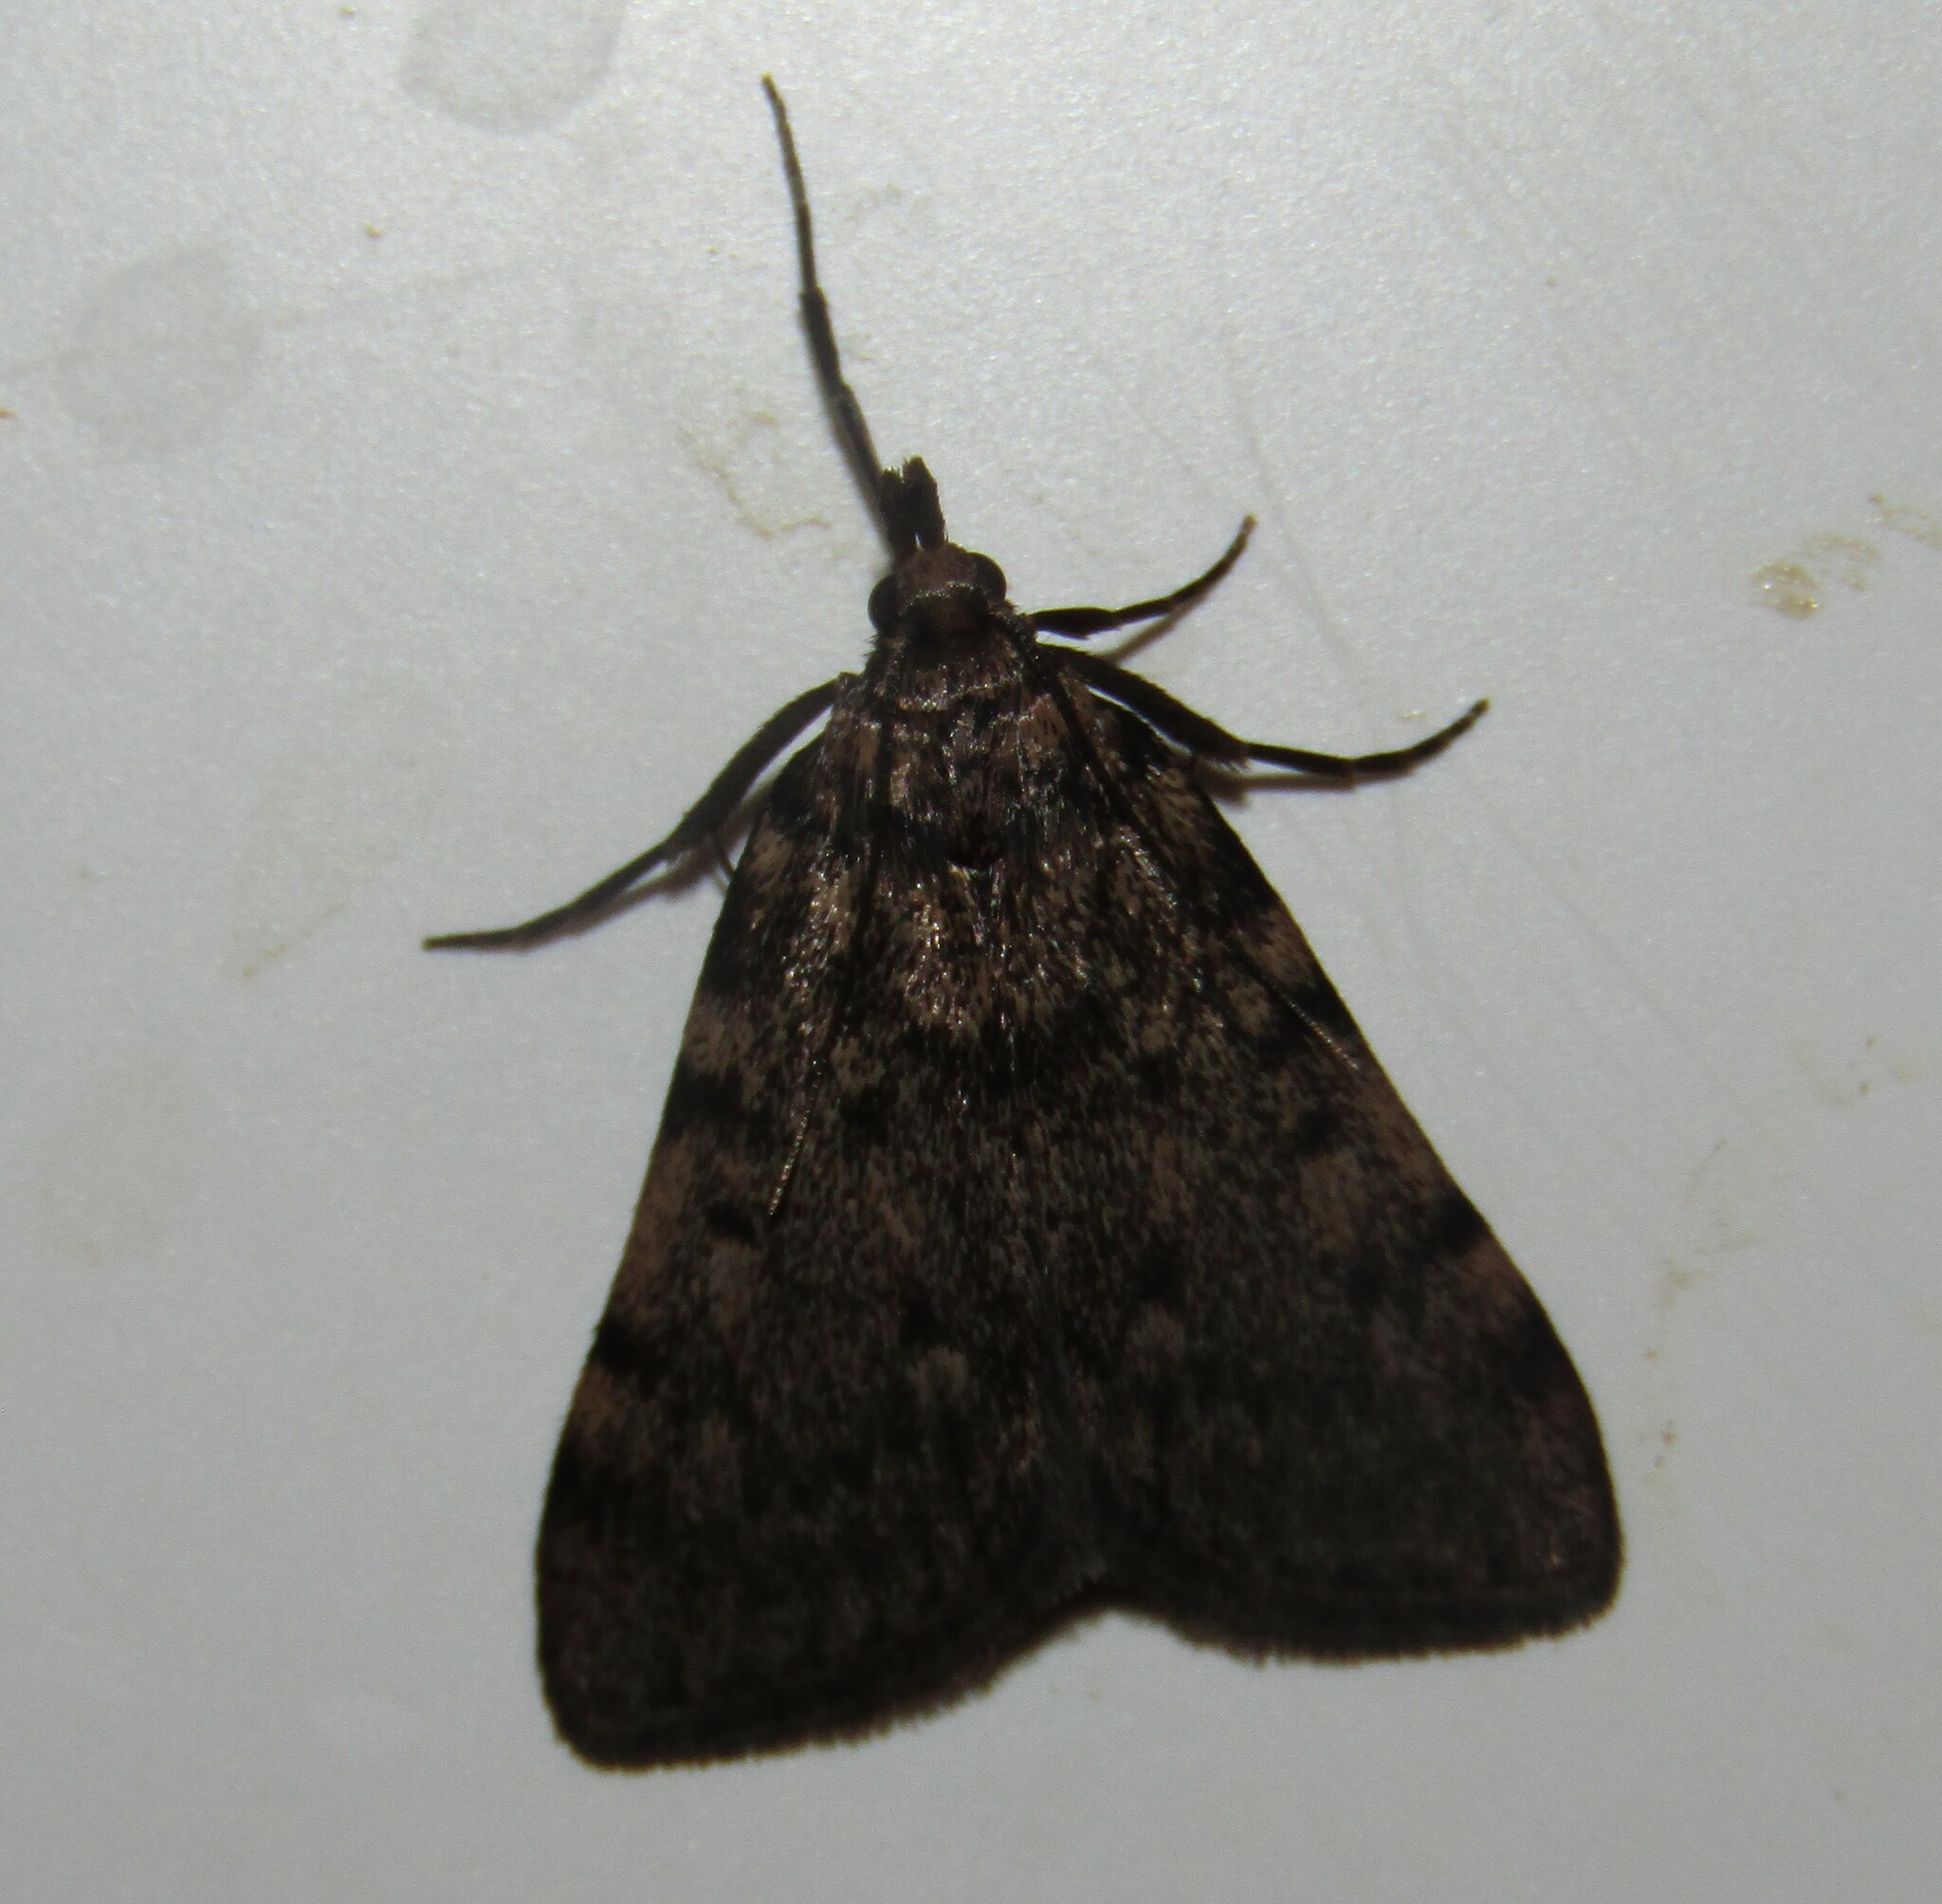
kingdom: Animalia
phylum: Arthropoda
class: Insecta
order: Lepidoptera
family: Pyralidae
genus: Aglossa
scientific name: Aglossa pinguinalis
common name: Large tabby
